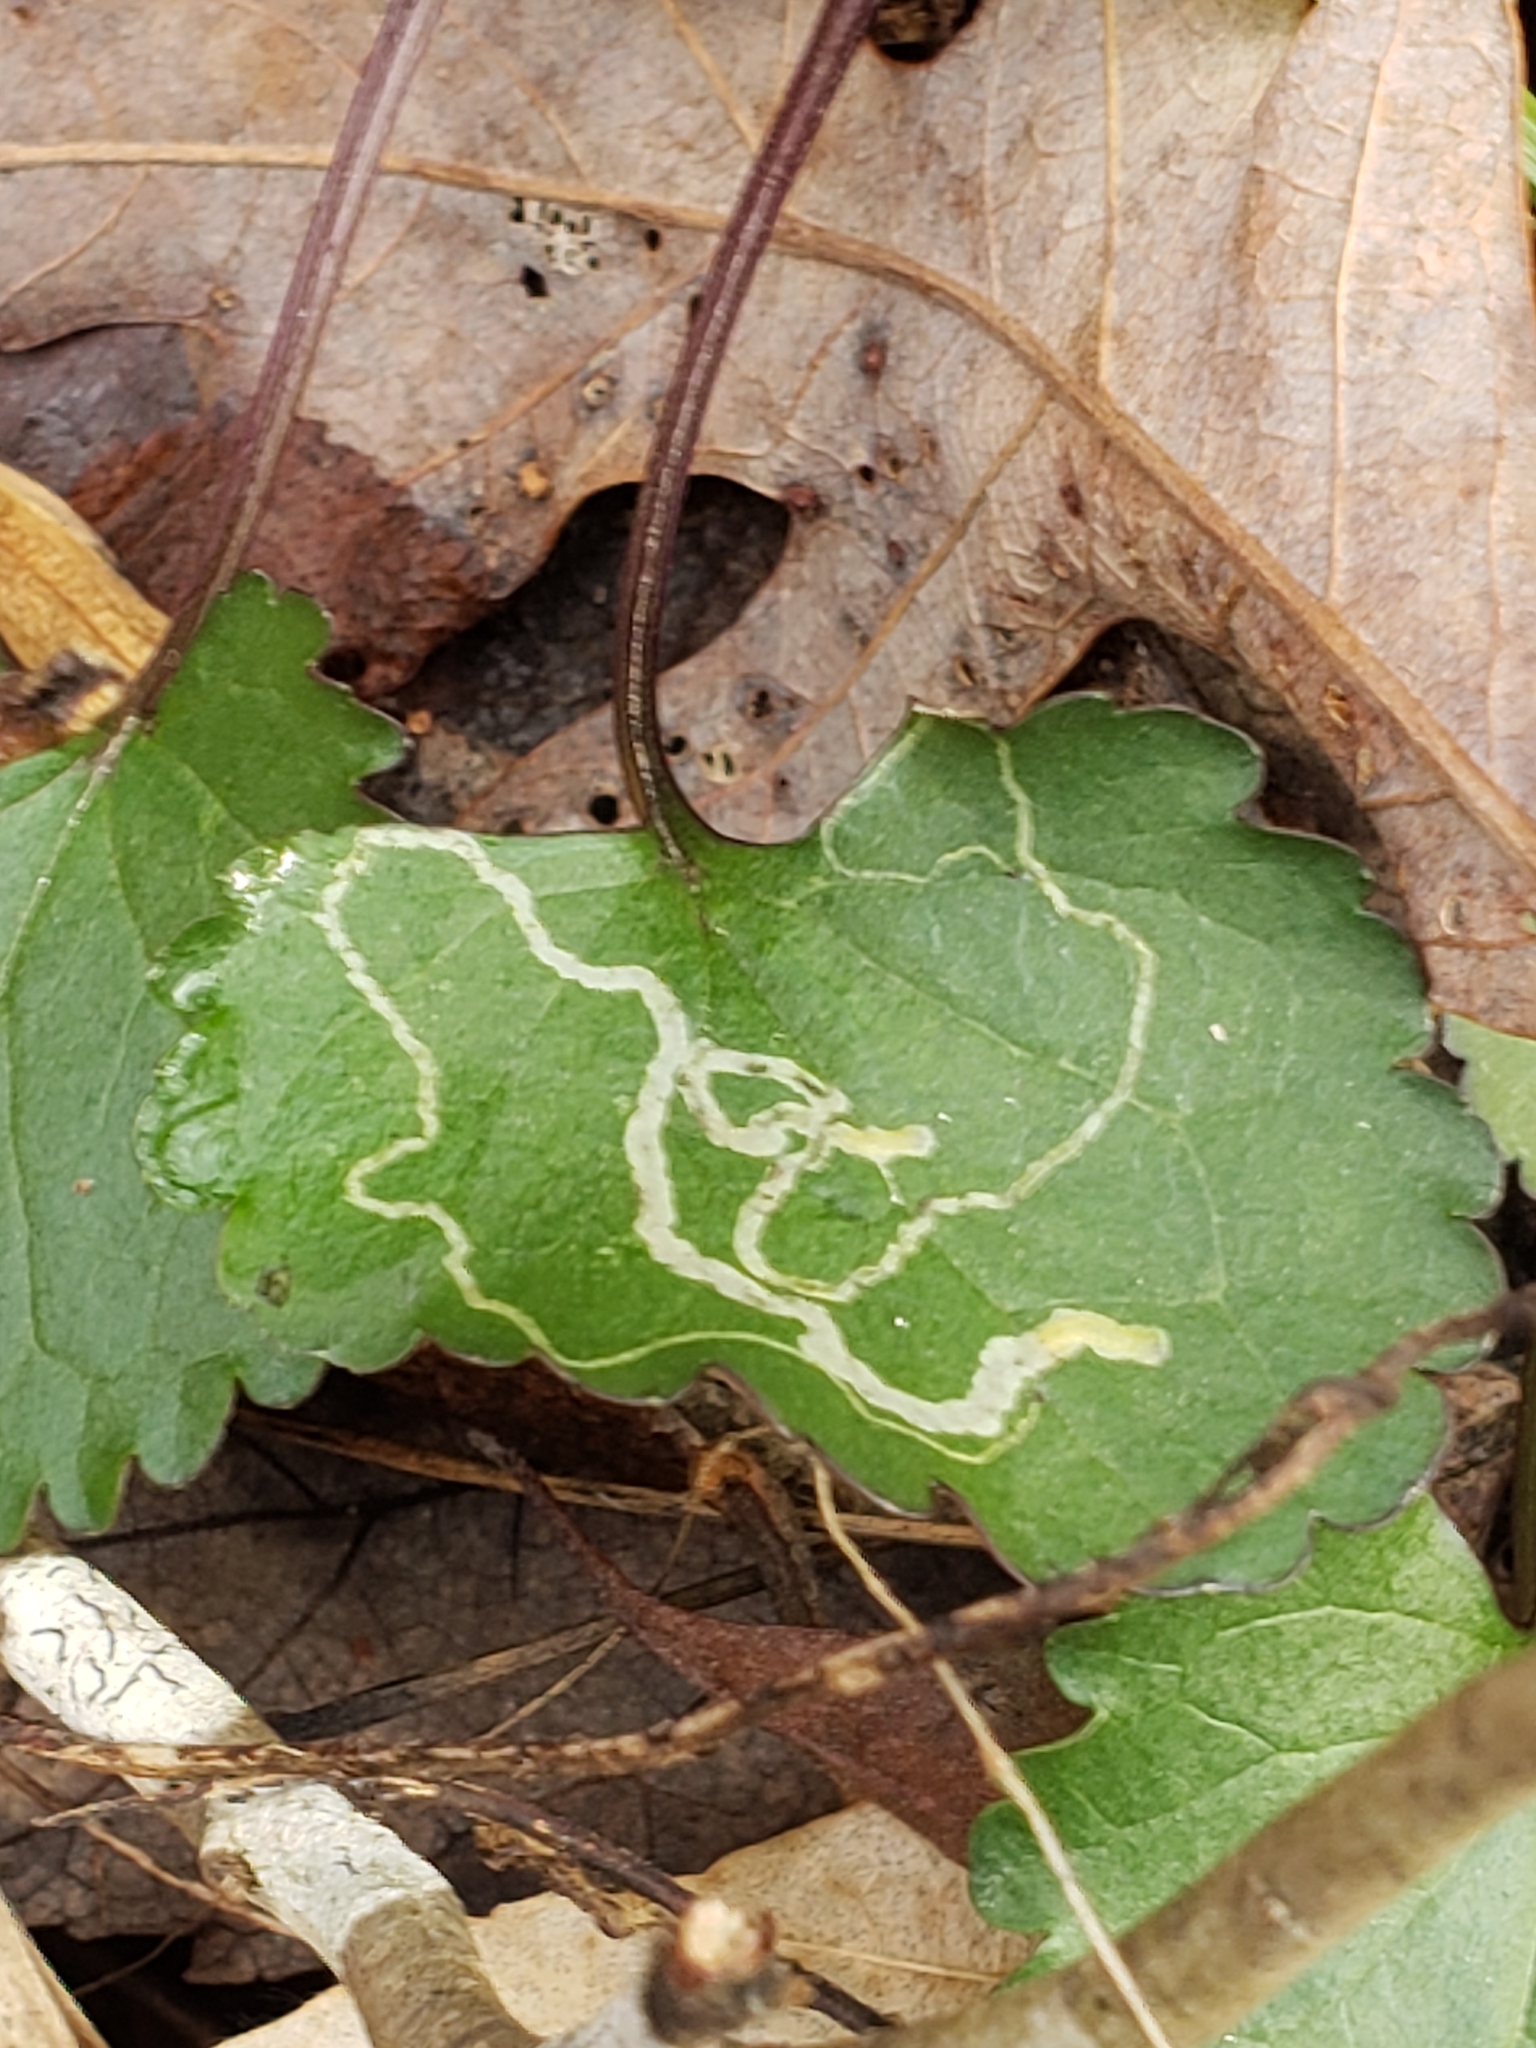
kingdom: Animalia
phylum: Arthropoda
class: Insecta
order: Lepidoptera
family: Gracillariidae
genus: Phyllocnistis
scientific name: Phyllocnistis insignis
